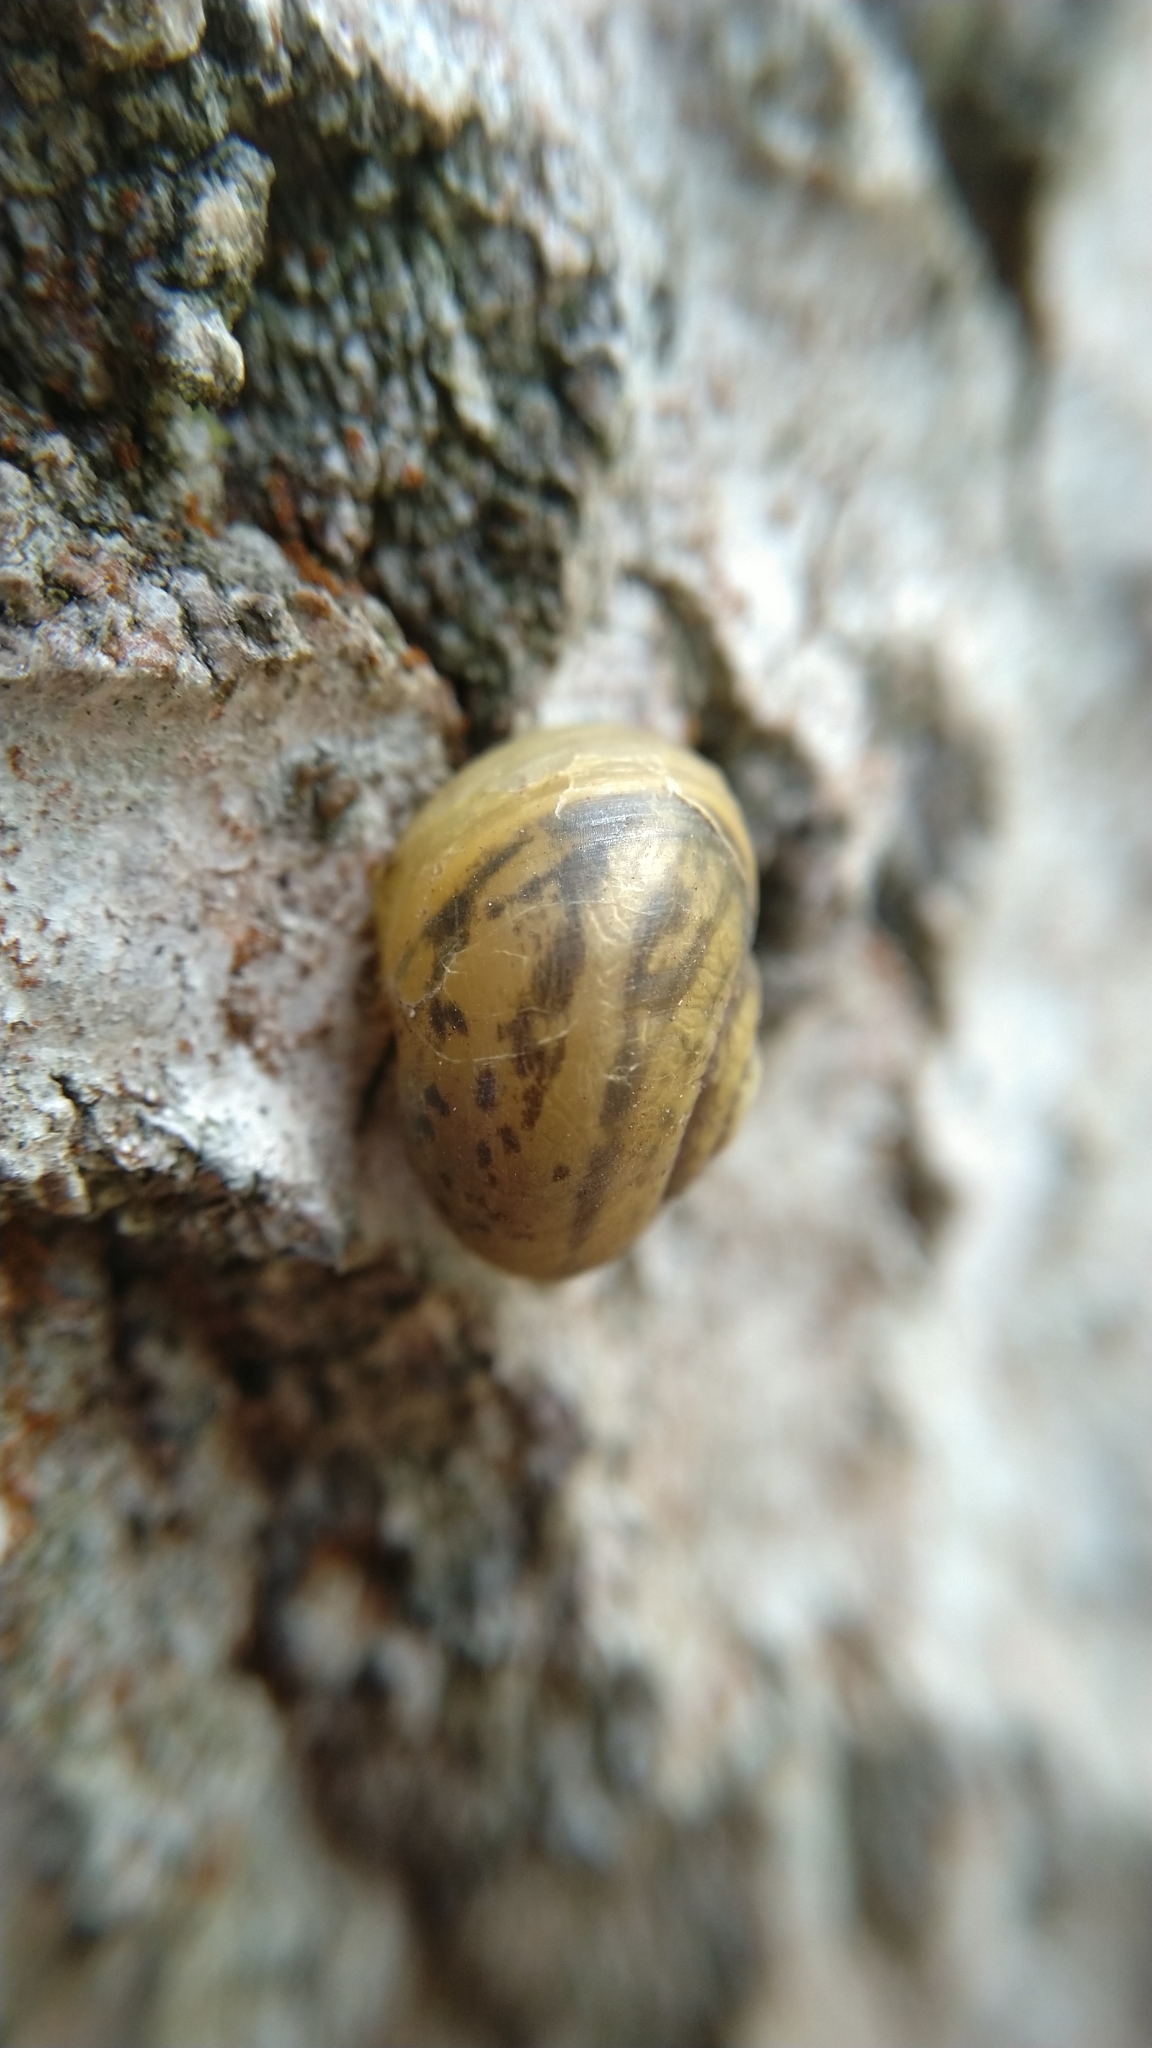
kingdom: Animalia
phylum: Mollusca
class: Gastropoda
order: Stylommatophora
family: Camaenidae
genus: Fruticicola
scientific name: Fruticicola fruticum
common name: Bush snail
